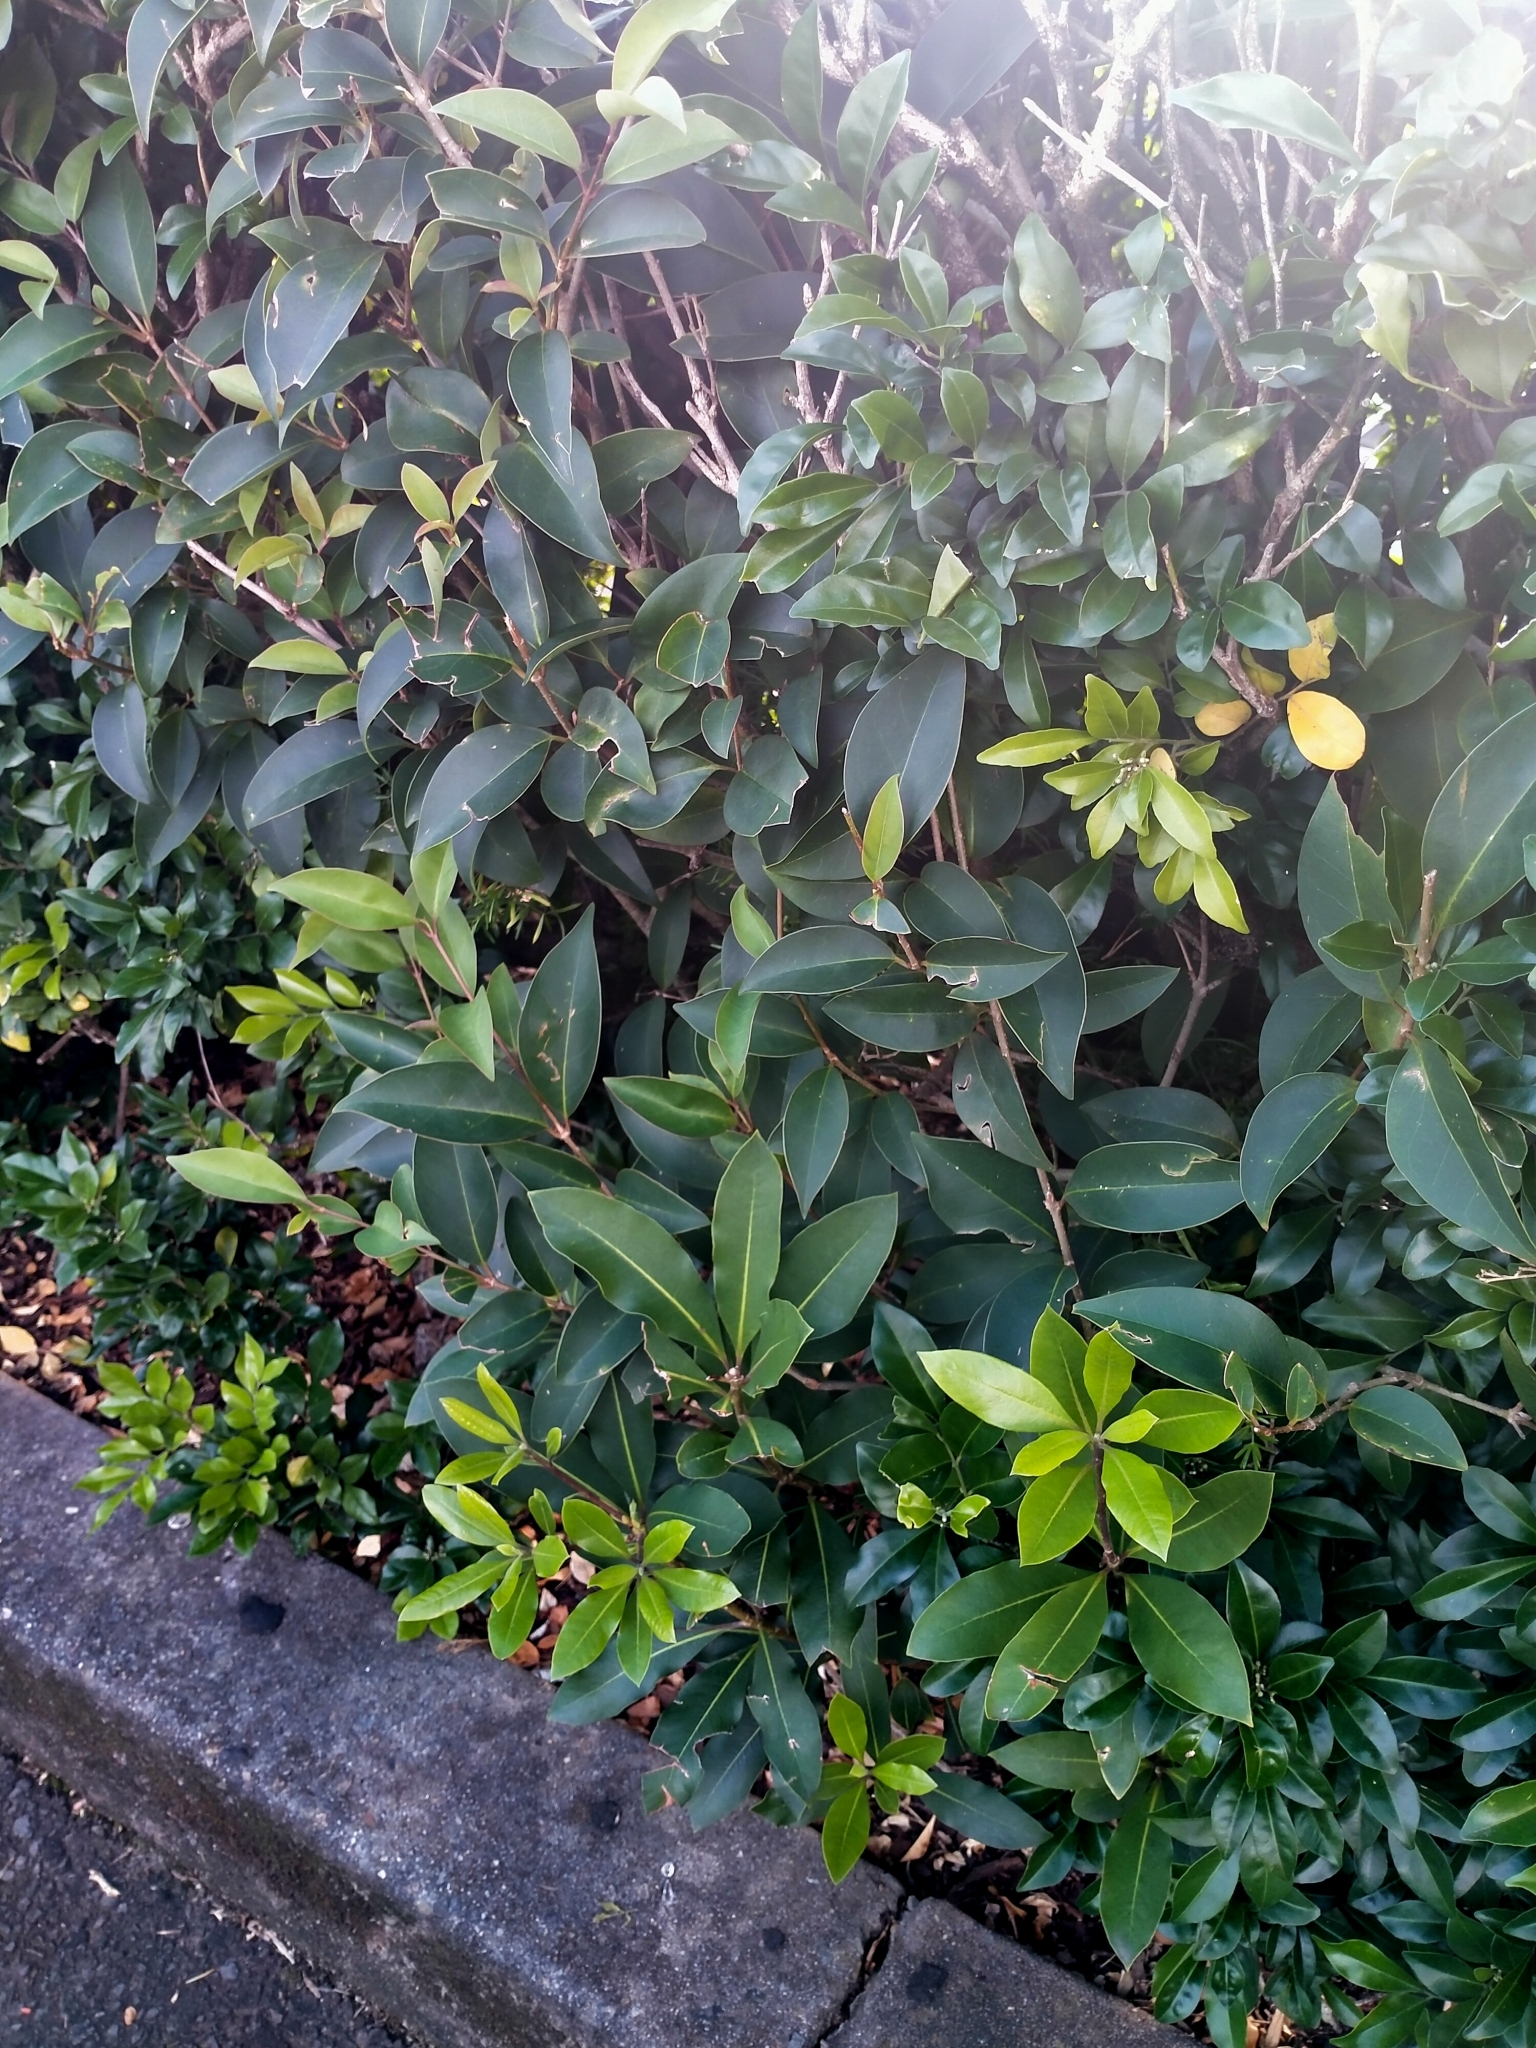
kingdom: Plantae
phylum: Tracheophyta
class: Magnoliopsida
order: Lamiales
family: Oleaceae
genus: Ligustrum
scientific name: Ligustrum lucidum
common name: Glossy privet
